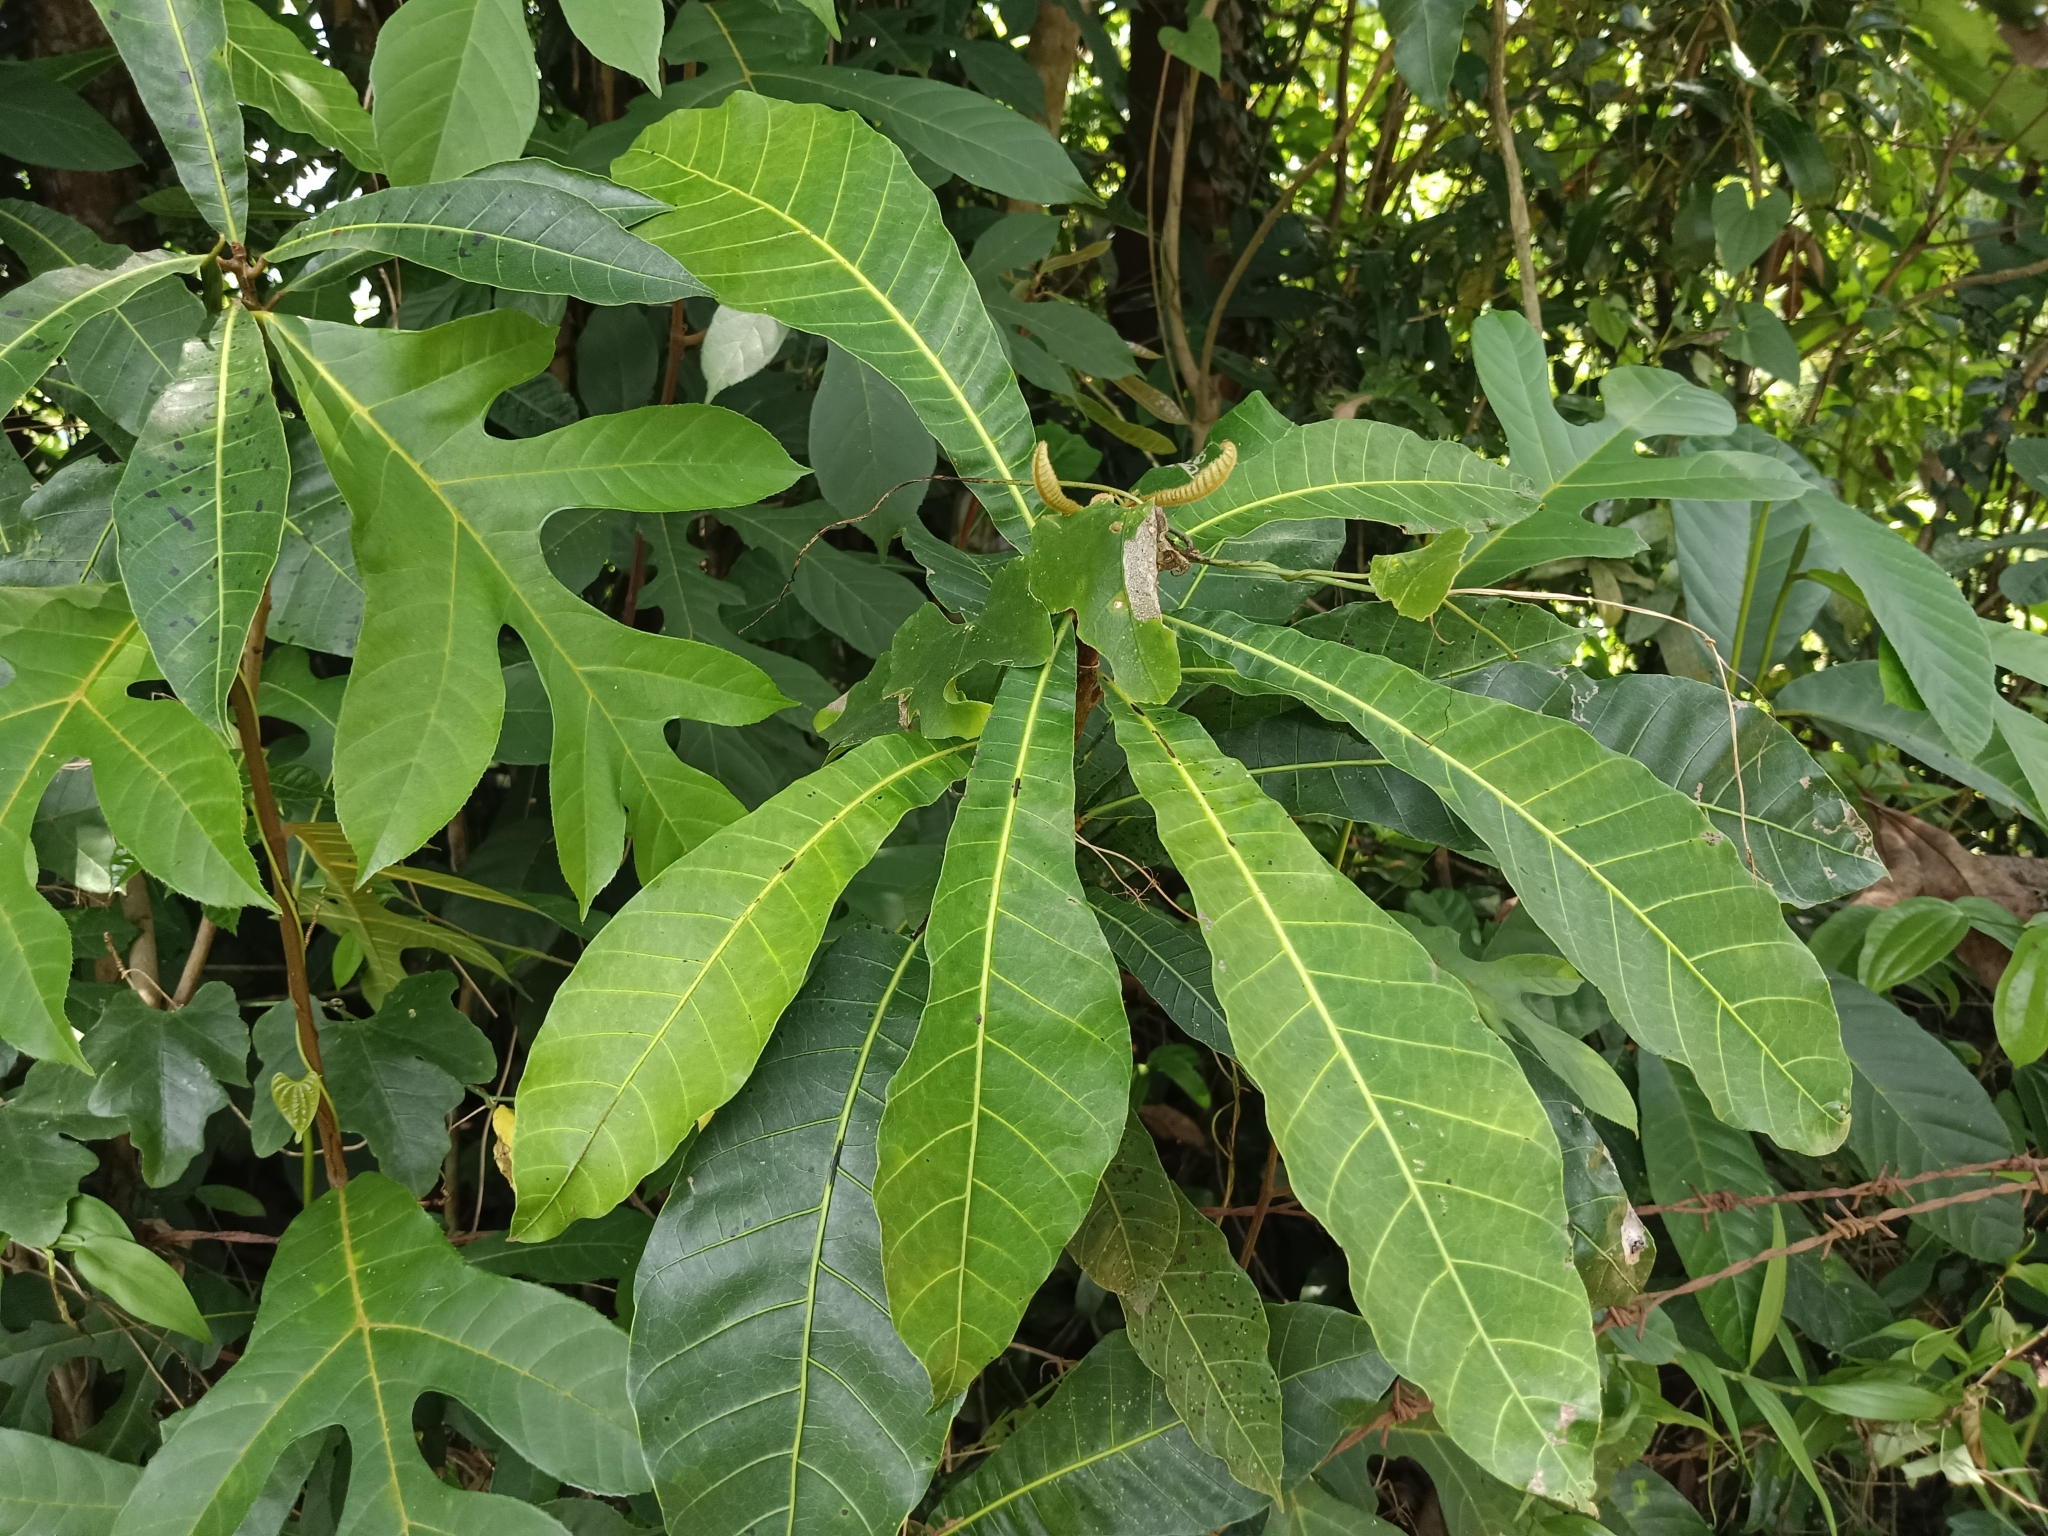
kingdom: Plantae
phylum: Tracheophyta
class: Magnoliopsida
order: Sapindales
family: Anacardiaceae
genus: Holigarna
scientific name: Holigarna arnottiana
